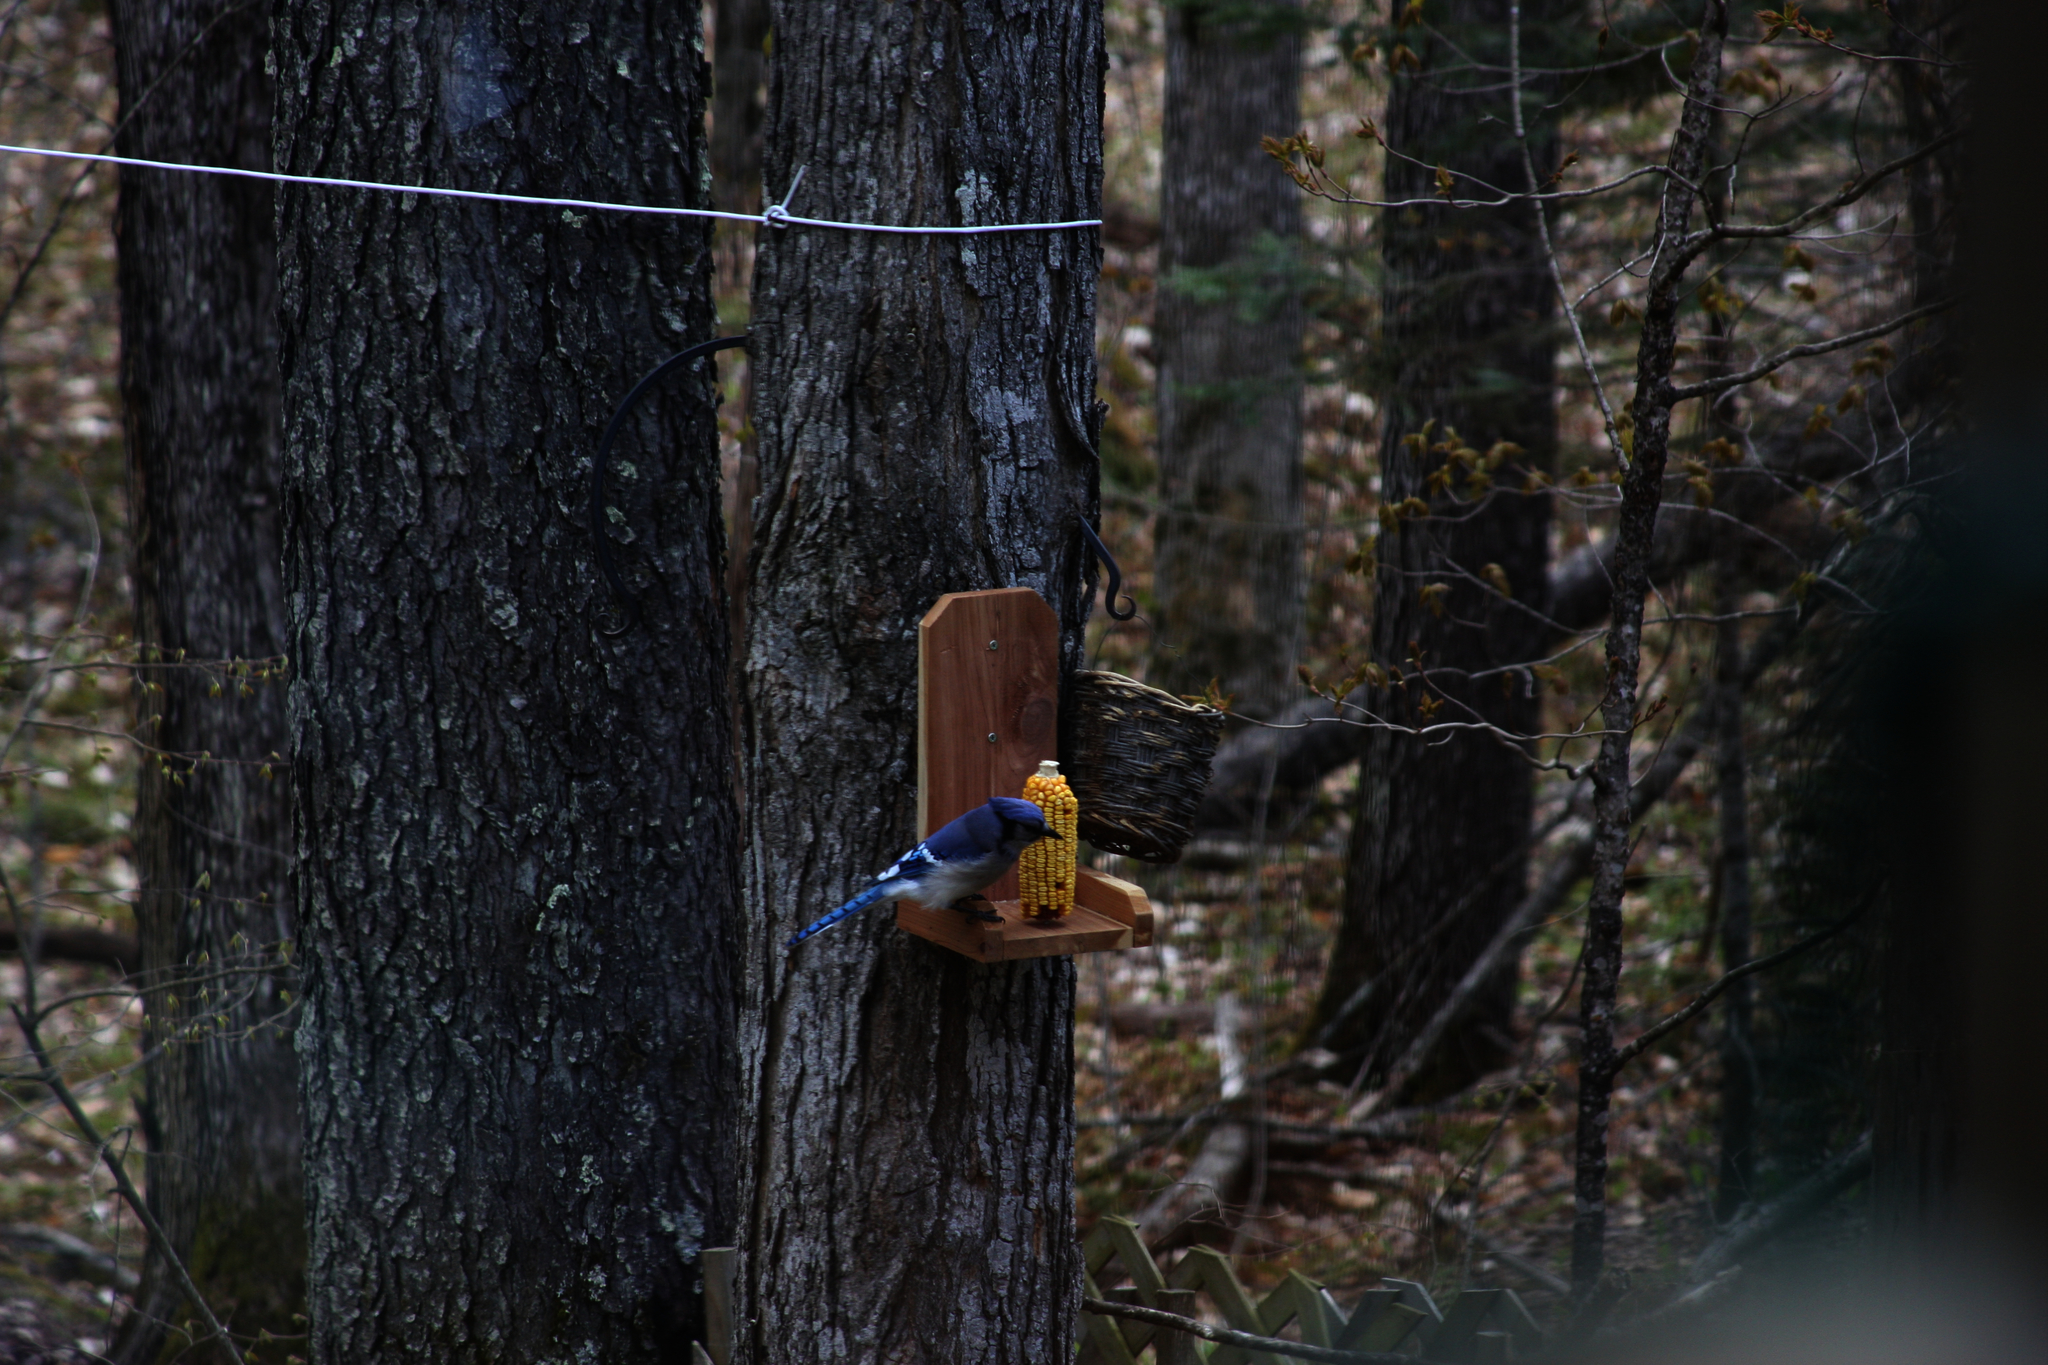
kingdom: Animalia
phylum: Chordata
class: Aves
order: Passeriformes
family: Corvidae
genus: Cyanocitta
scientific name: Cyanocitta cristata
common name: Blue jay
